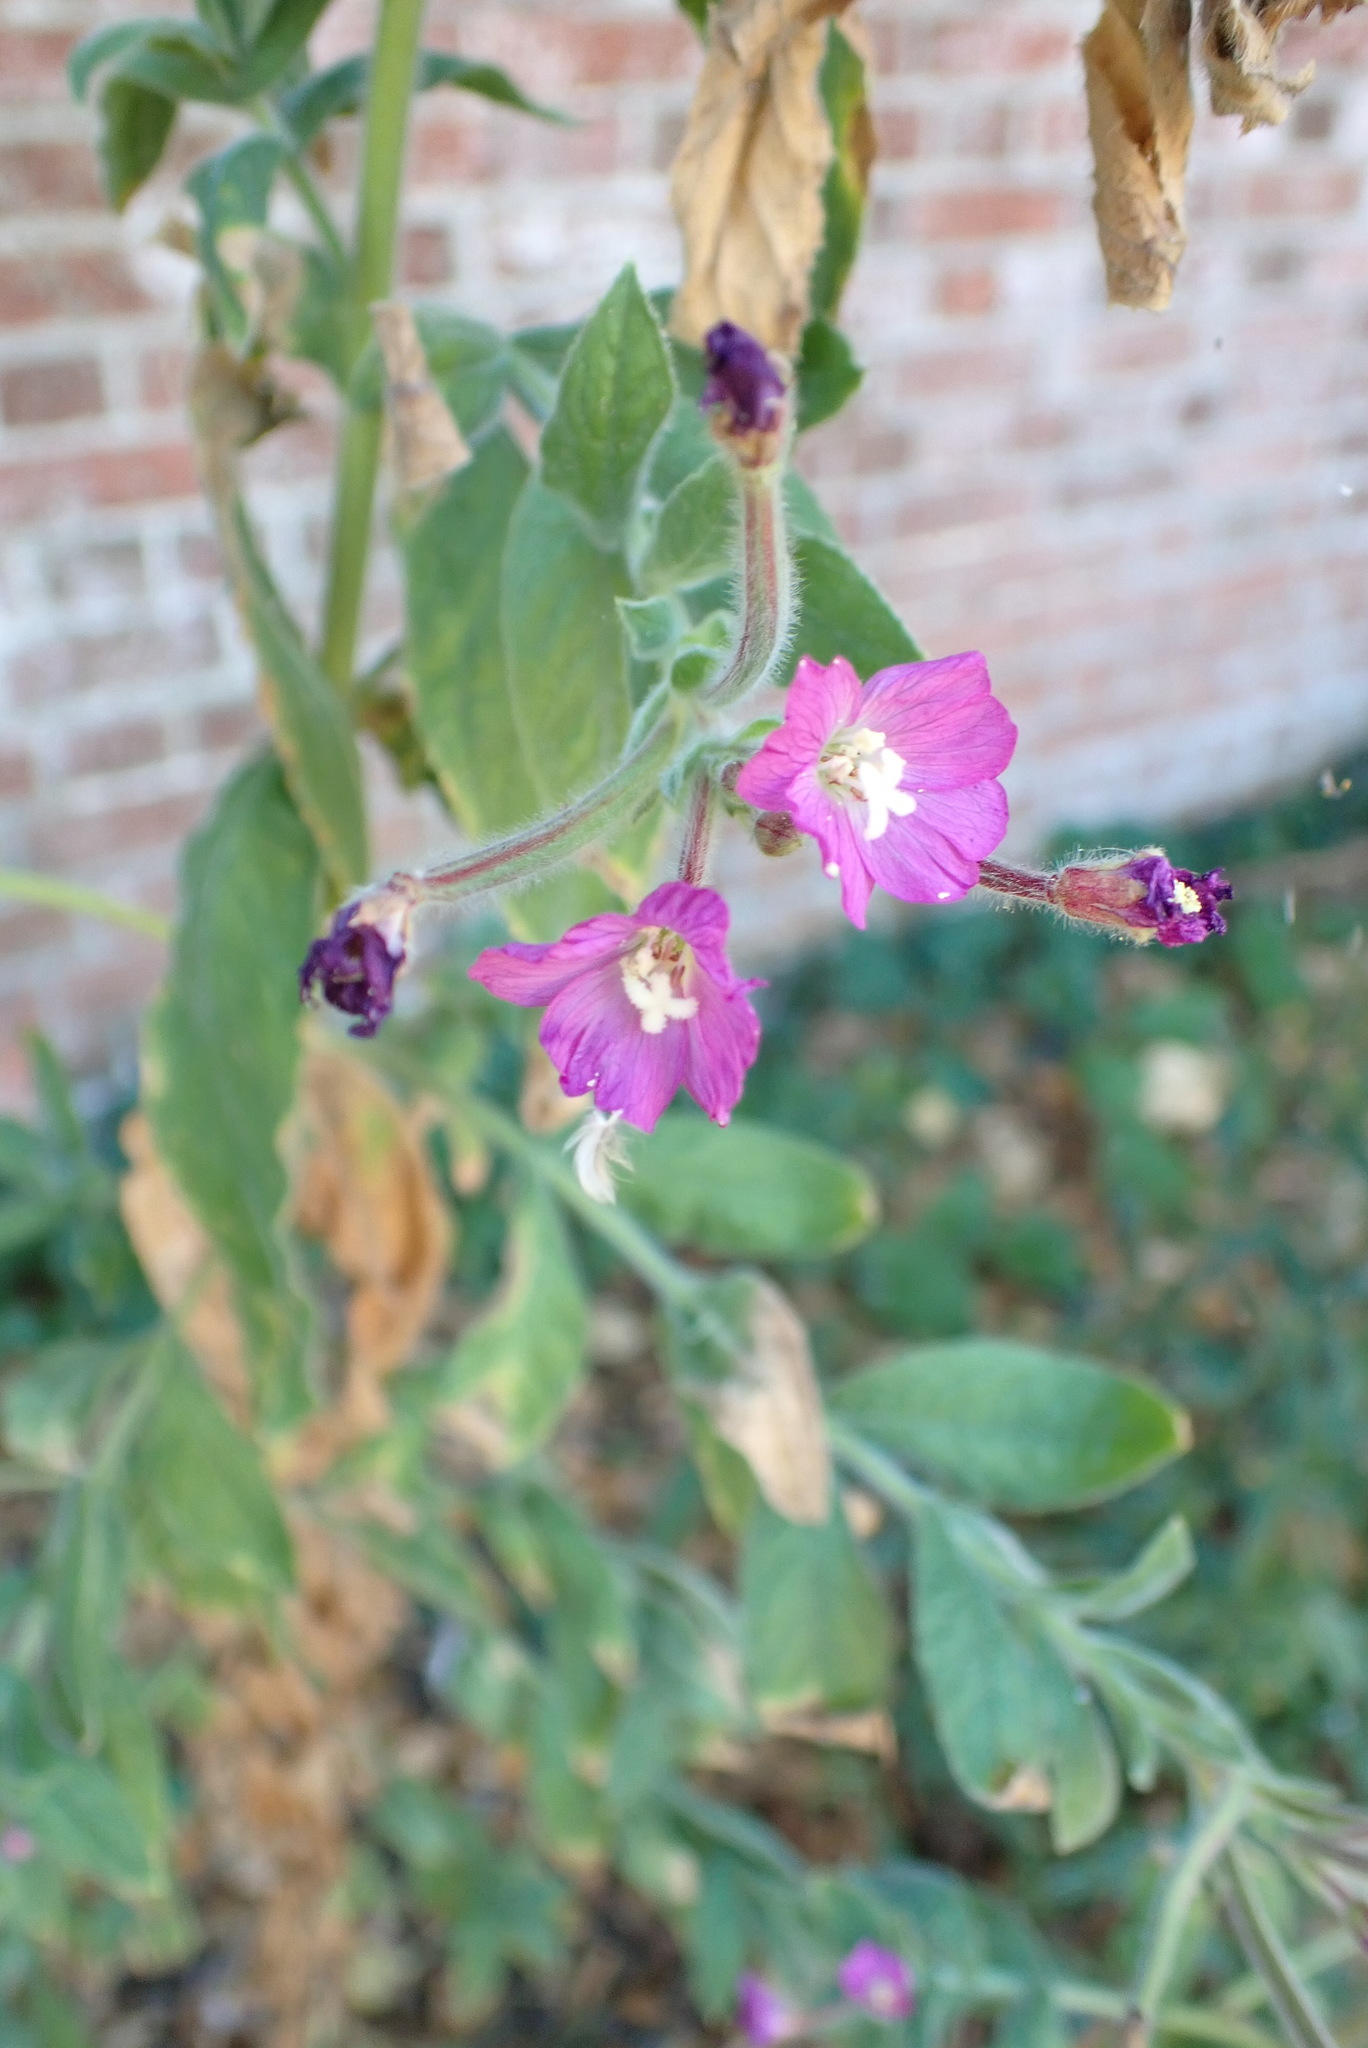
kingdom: Plantae
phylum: Tracheophyta
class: Magnoliopsida
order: Myrtales
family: Onagraceae
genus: Epilobium
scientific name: Epilobium hirsutum
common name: Great willowherb
